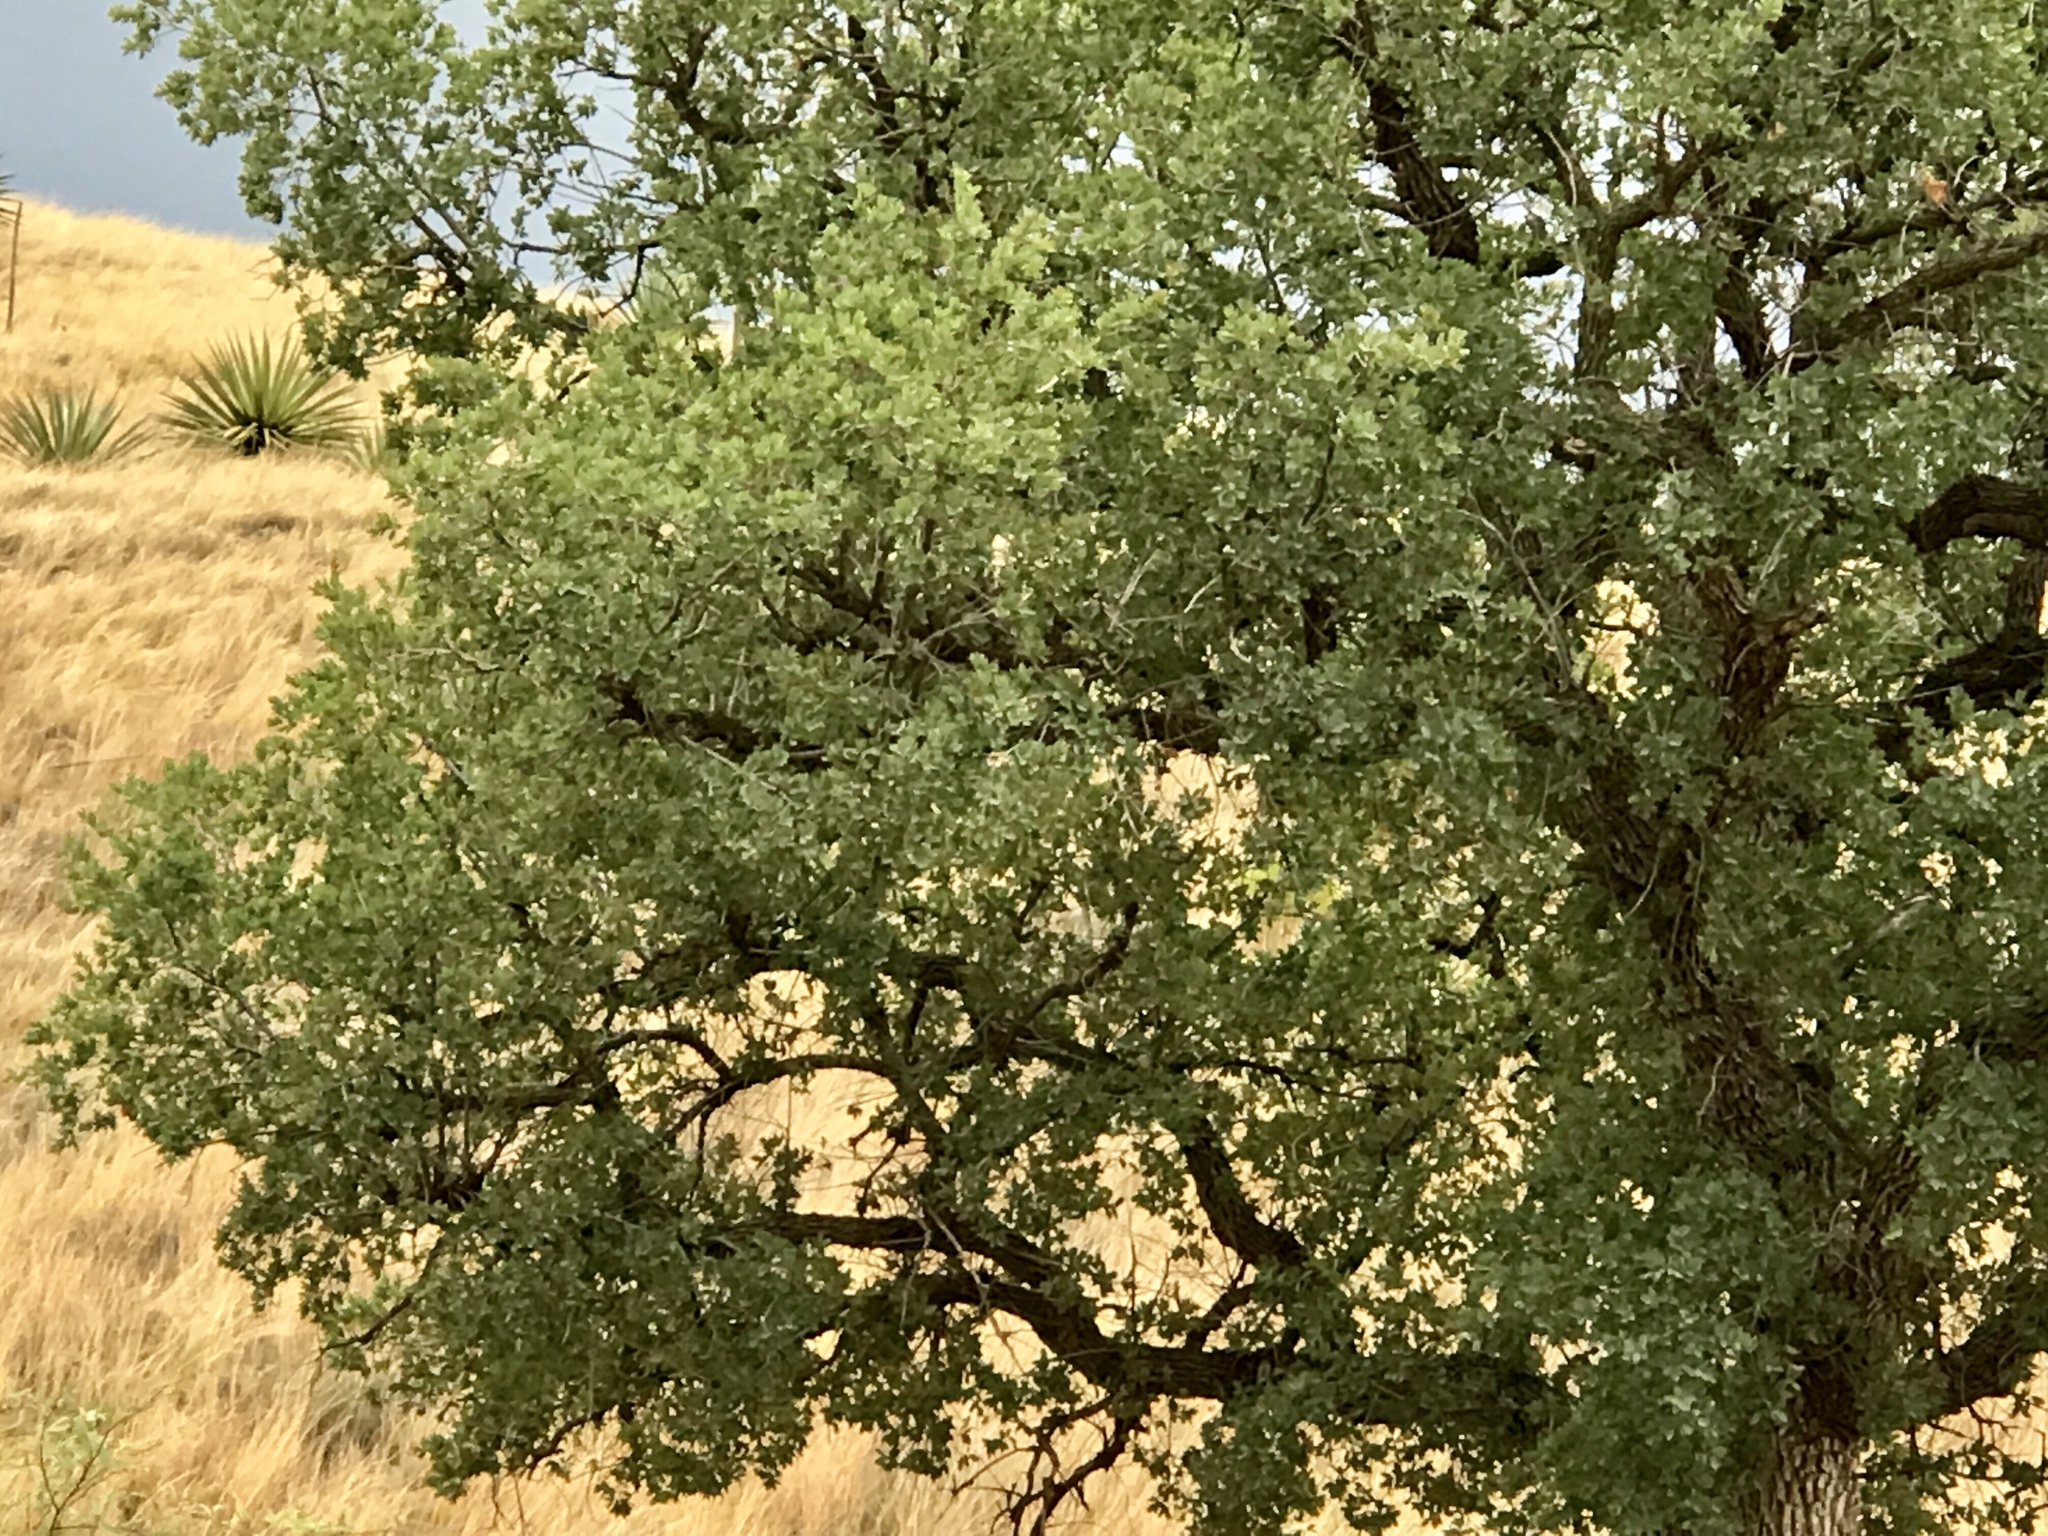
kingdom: Plantae
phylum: Tracheophyta
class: Magnoliopsida
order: Fagales
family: Fagaceae
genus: Quercus
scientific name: Quercus arizonica
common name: Arizona white oak
